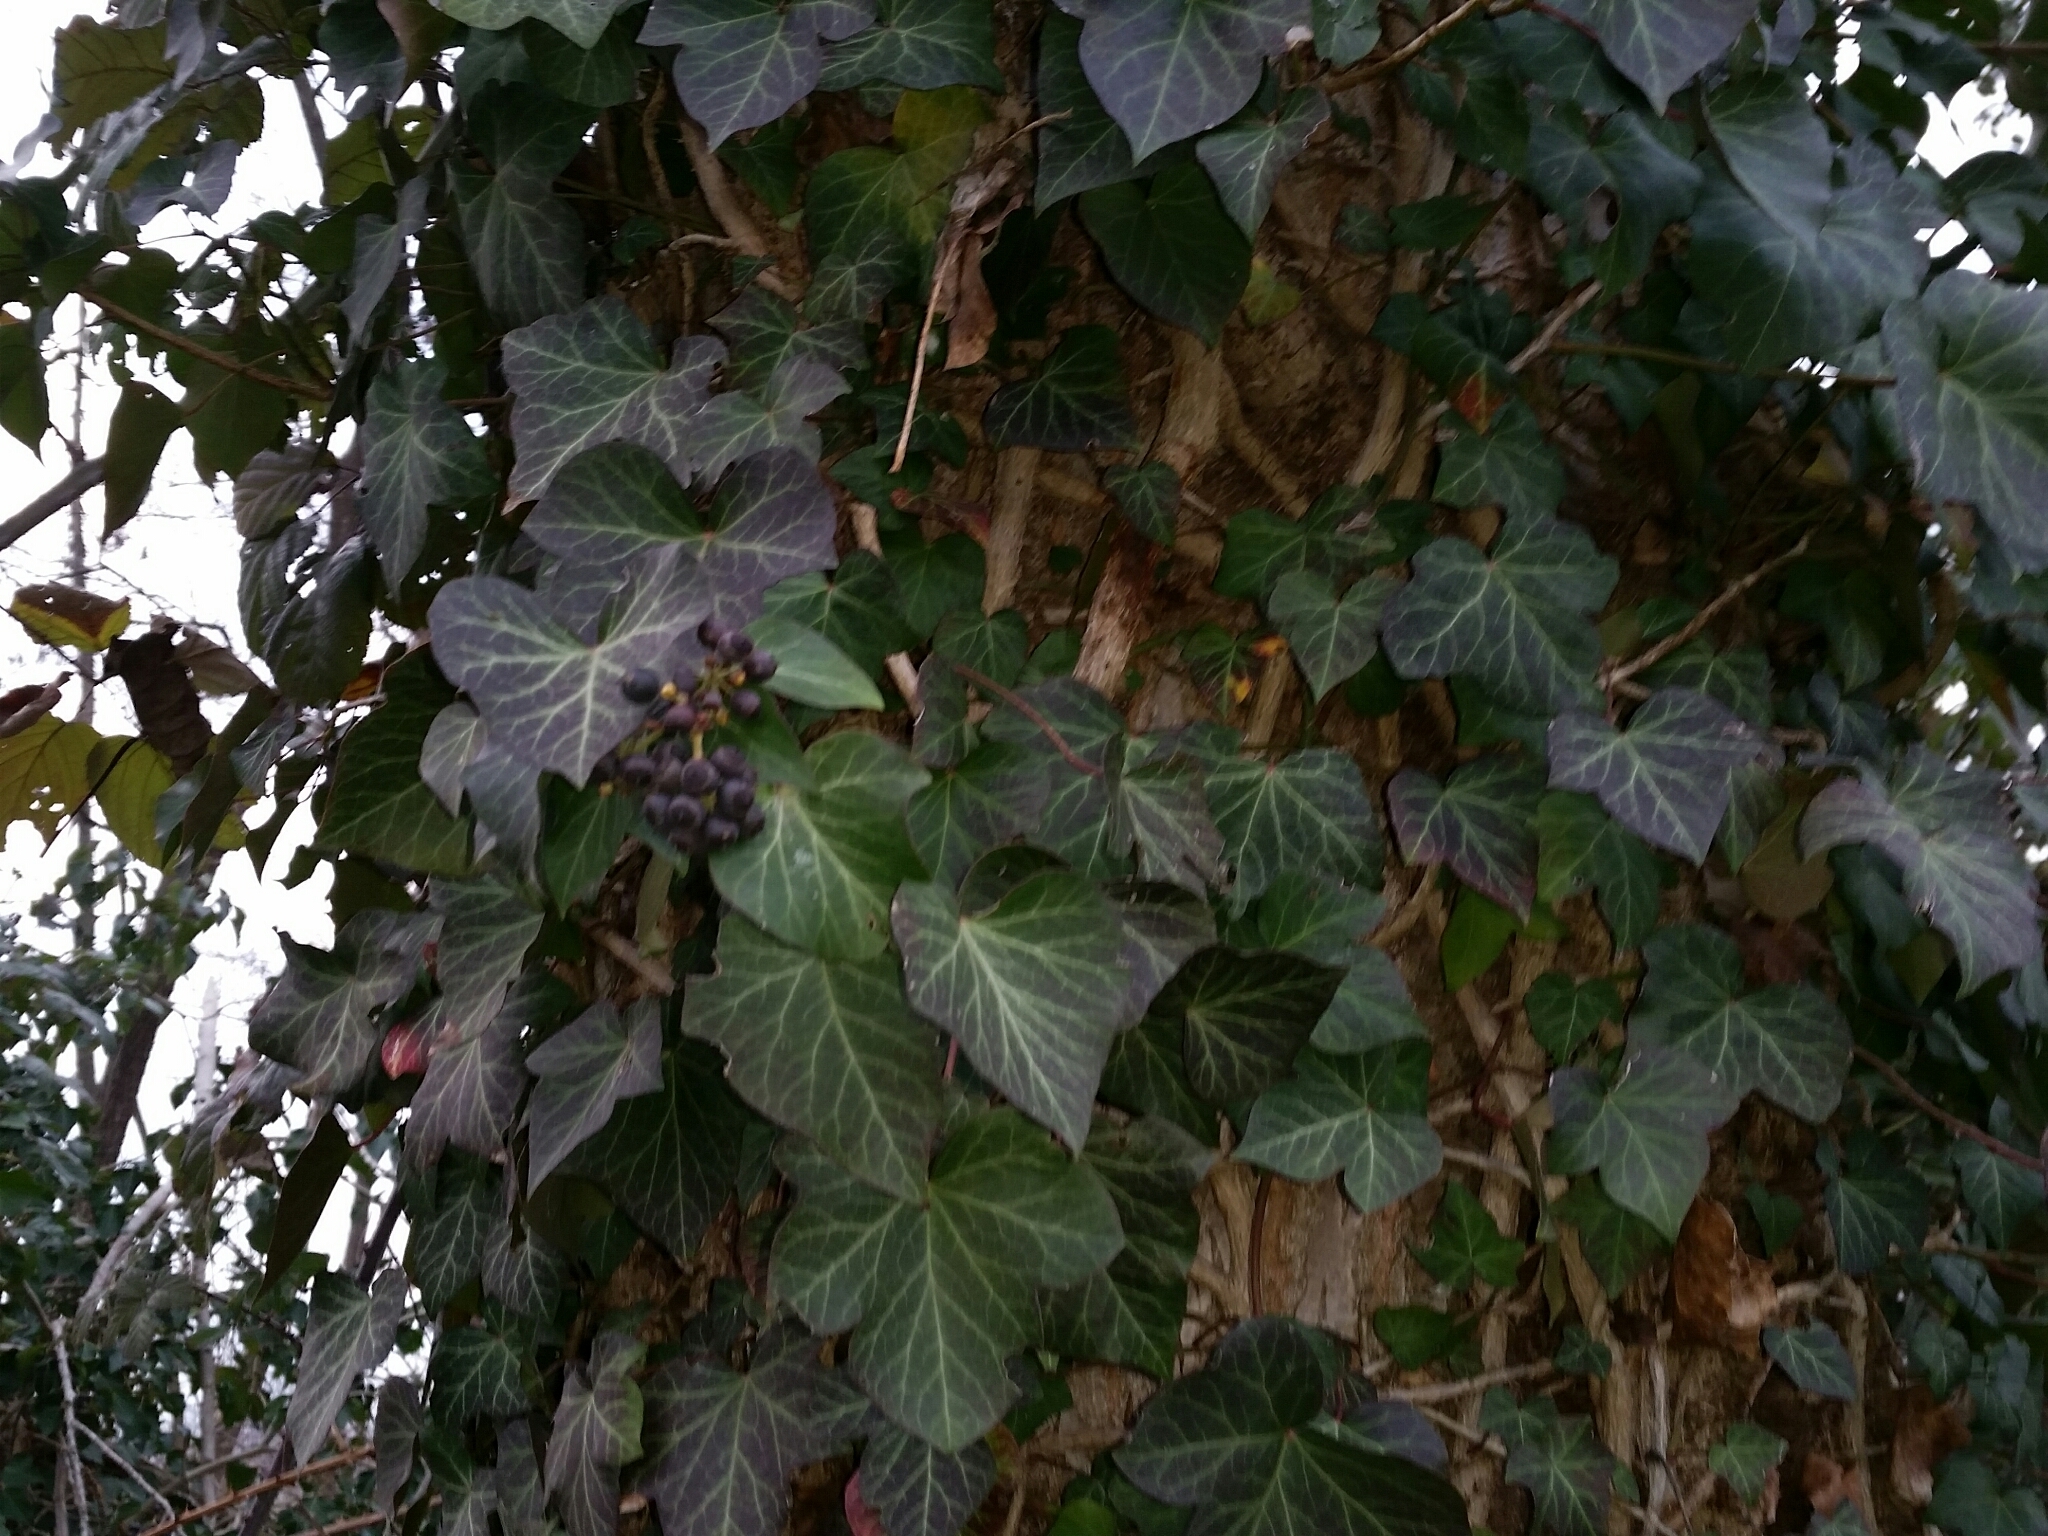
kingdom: Plantae
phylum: Tracheophyta
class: Magnoliopsida
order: Apiales
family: Araliaceae
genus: Hedera
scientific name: Hedera helix
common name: Ivy
